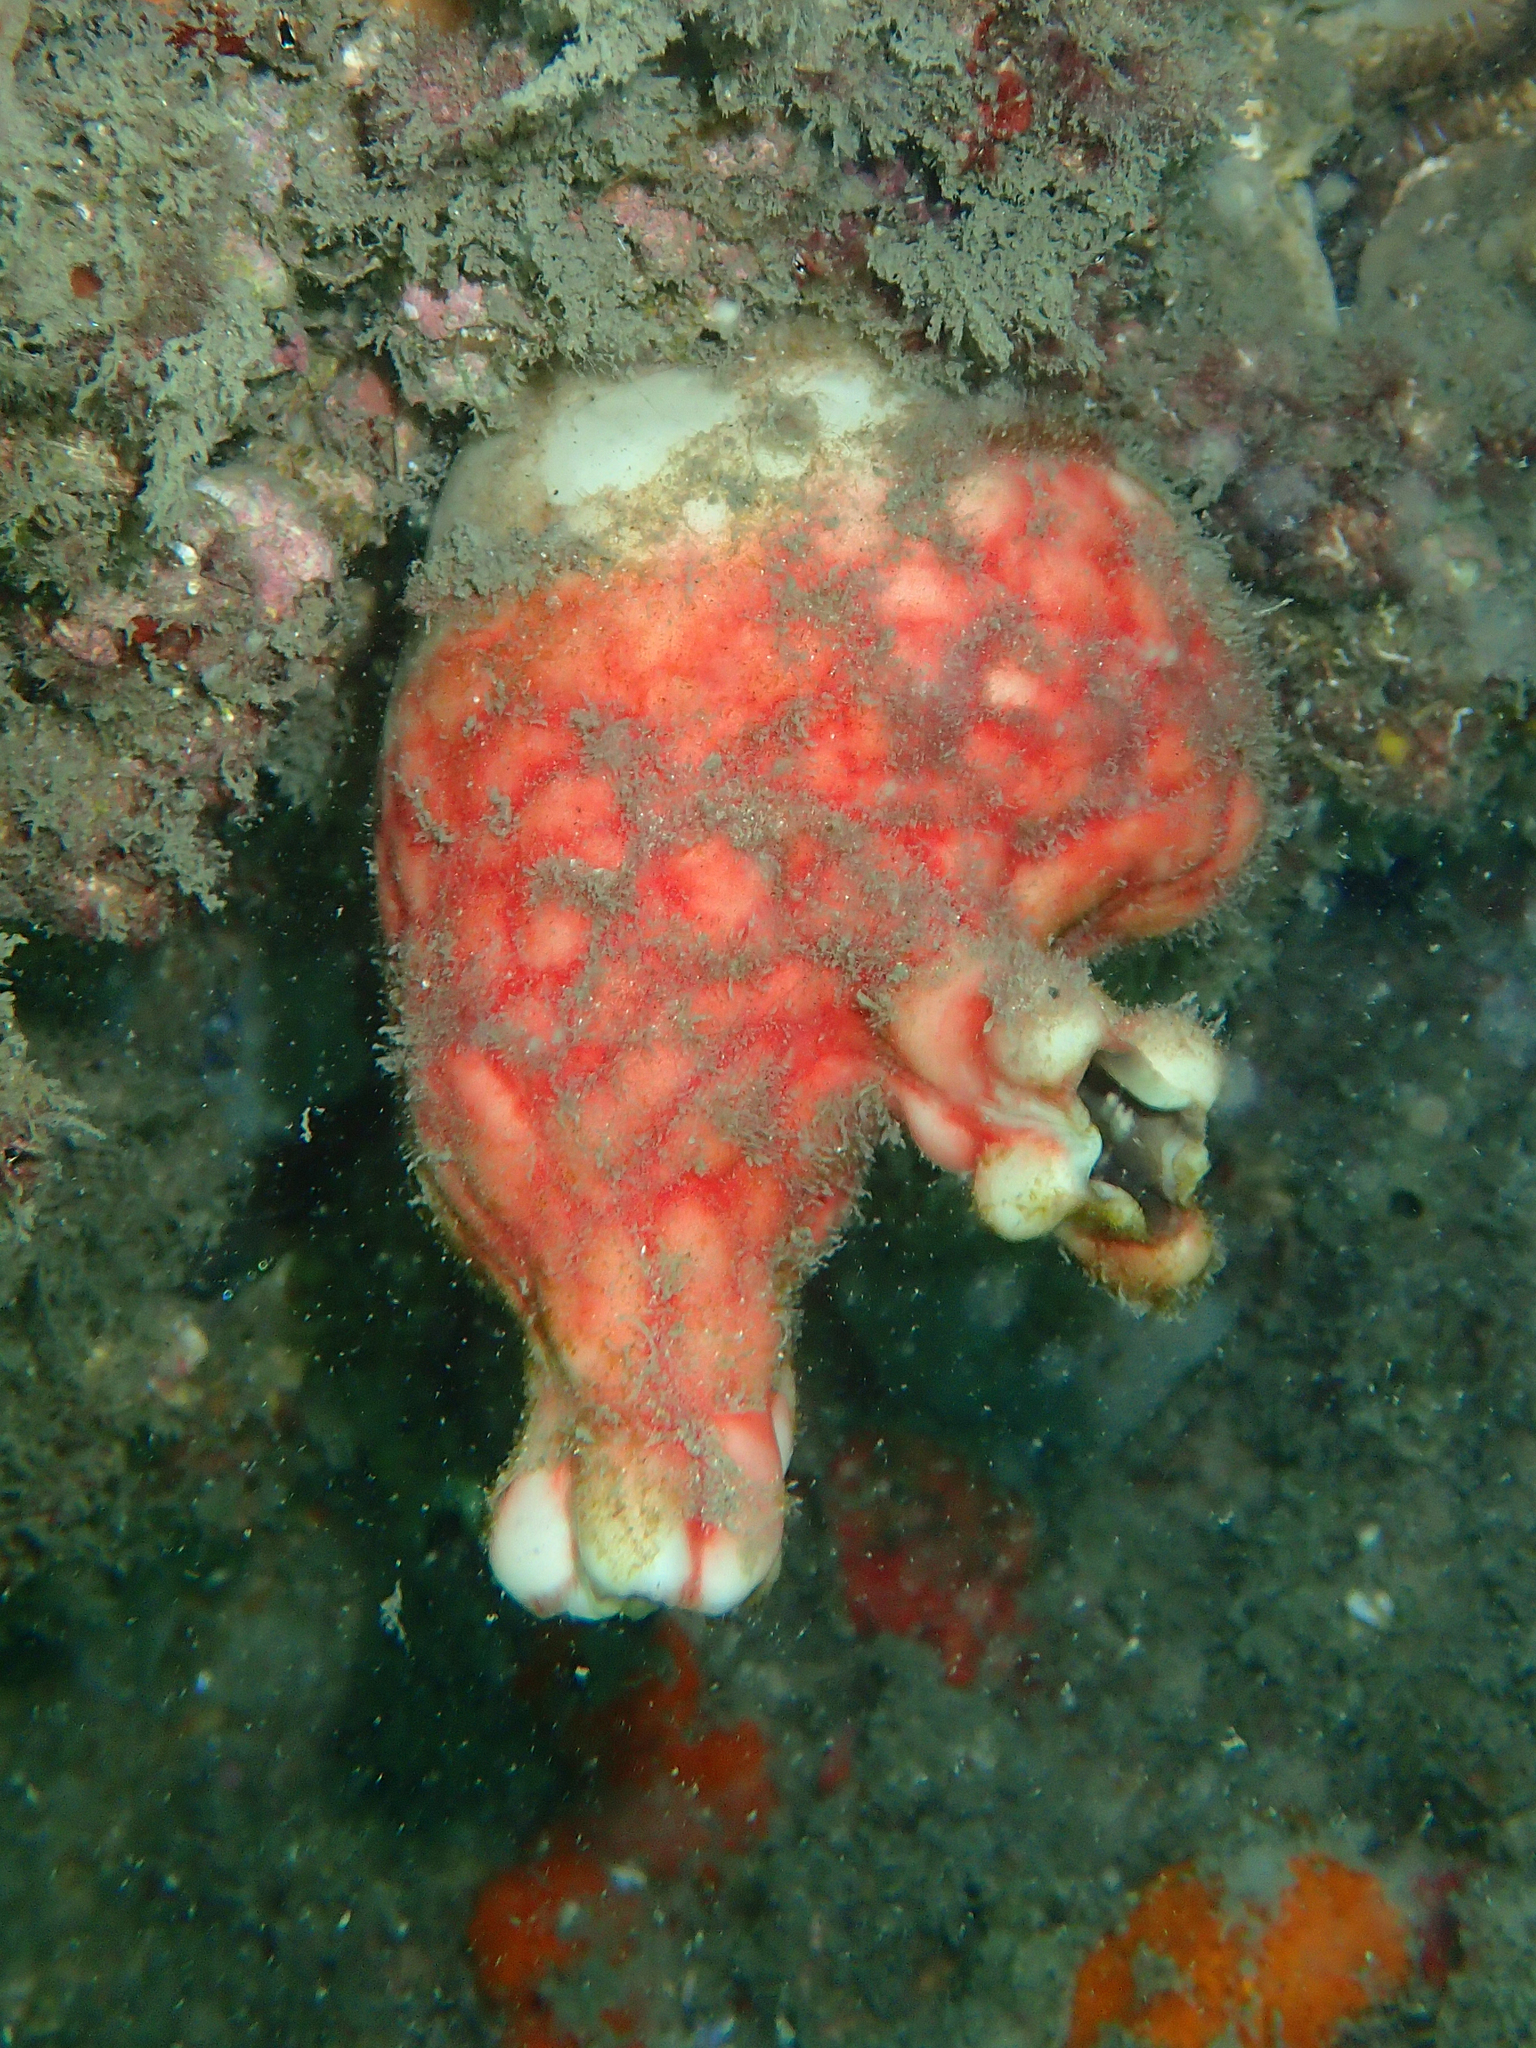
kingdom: Animalia
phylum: Chordata
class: Ascidiacea
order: Stolidobranchia
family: Styelidae
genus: Cnemidocarpa
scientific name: Cnemidocarpa stolonifera
